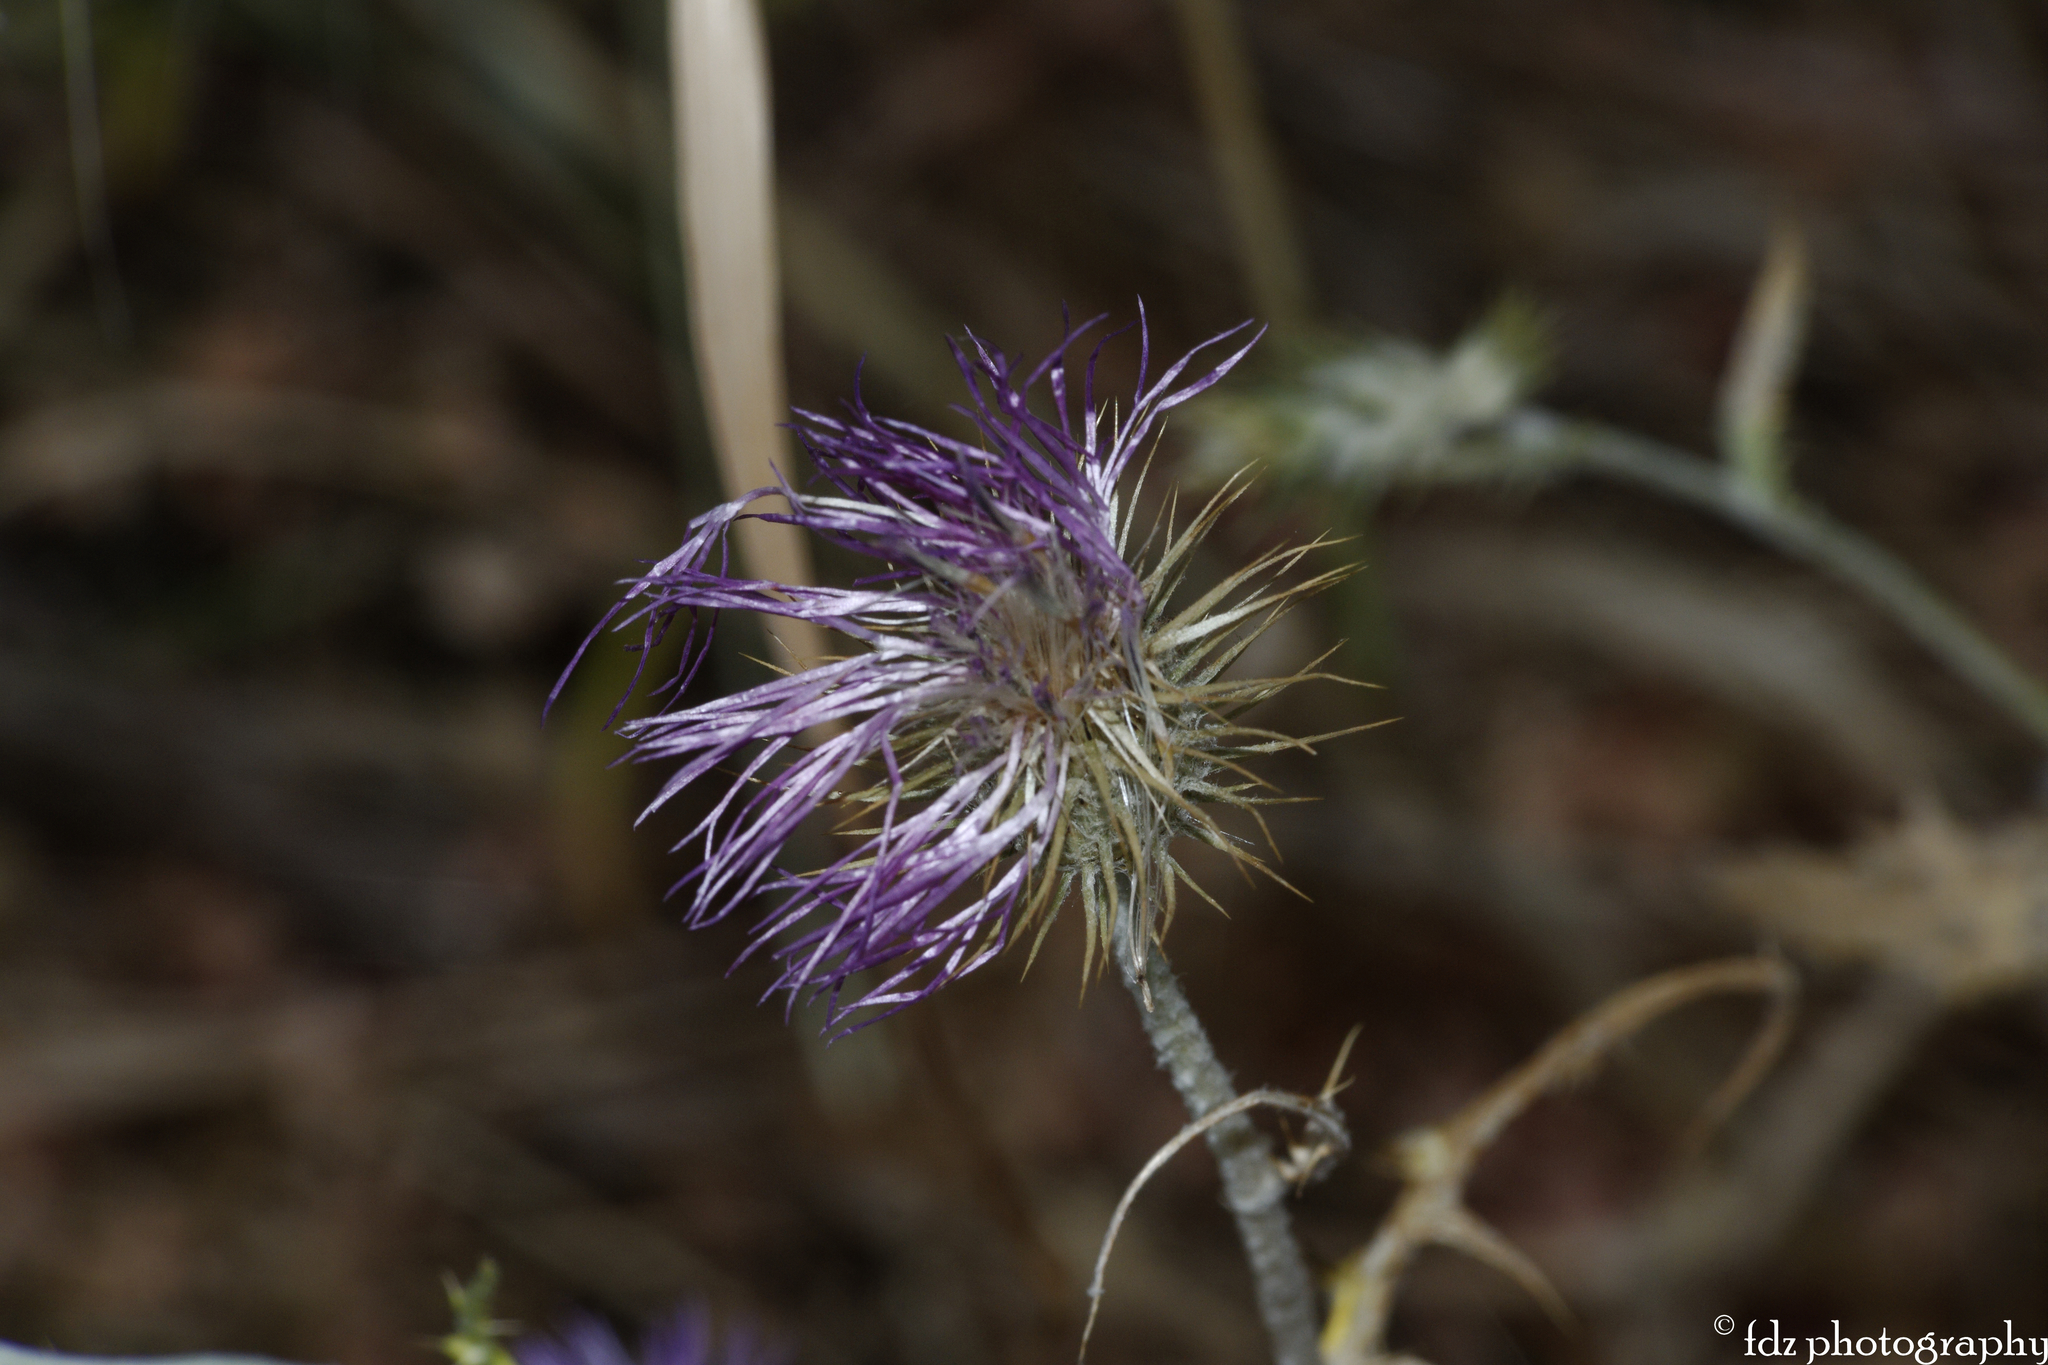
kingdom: Plantae
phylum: Tracheophyta
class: Magnoliopsida
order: Asterales
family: Asteraceae
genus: Galactites
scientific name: Galactites tomentosa
